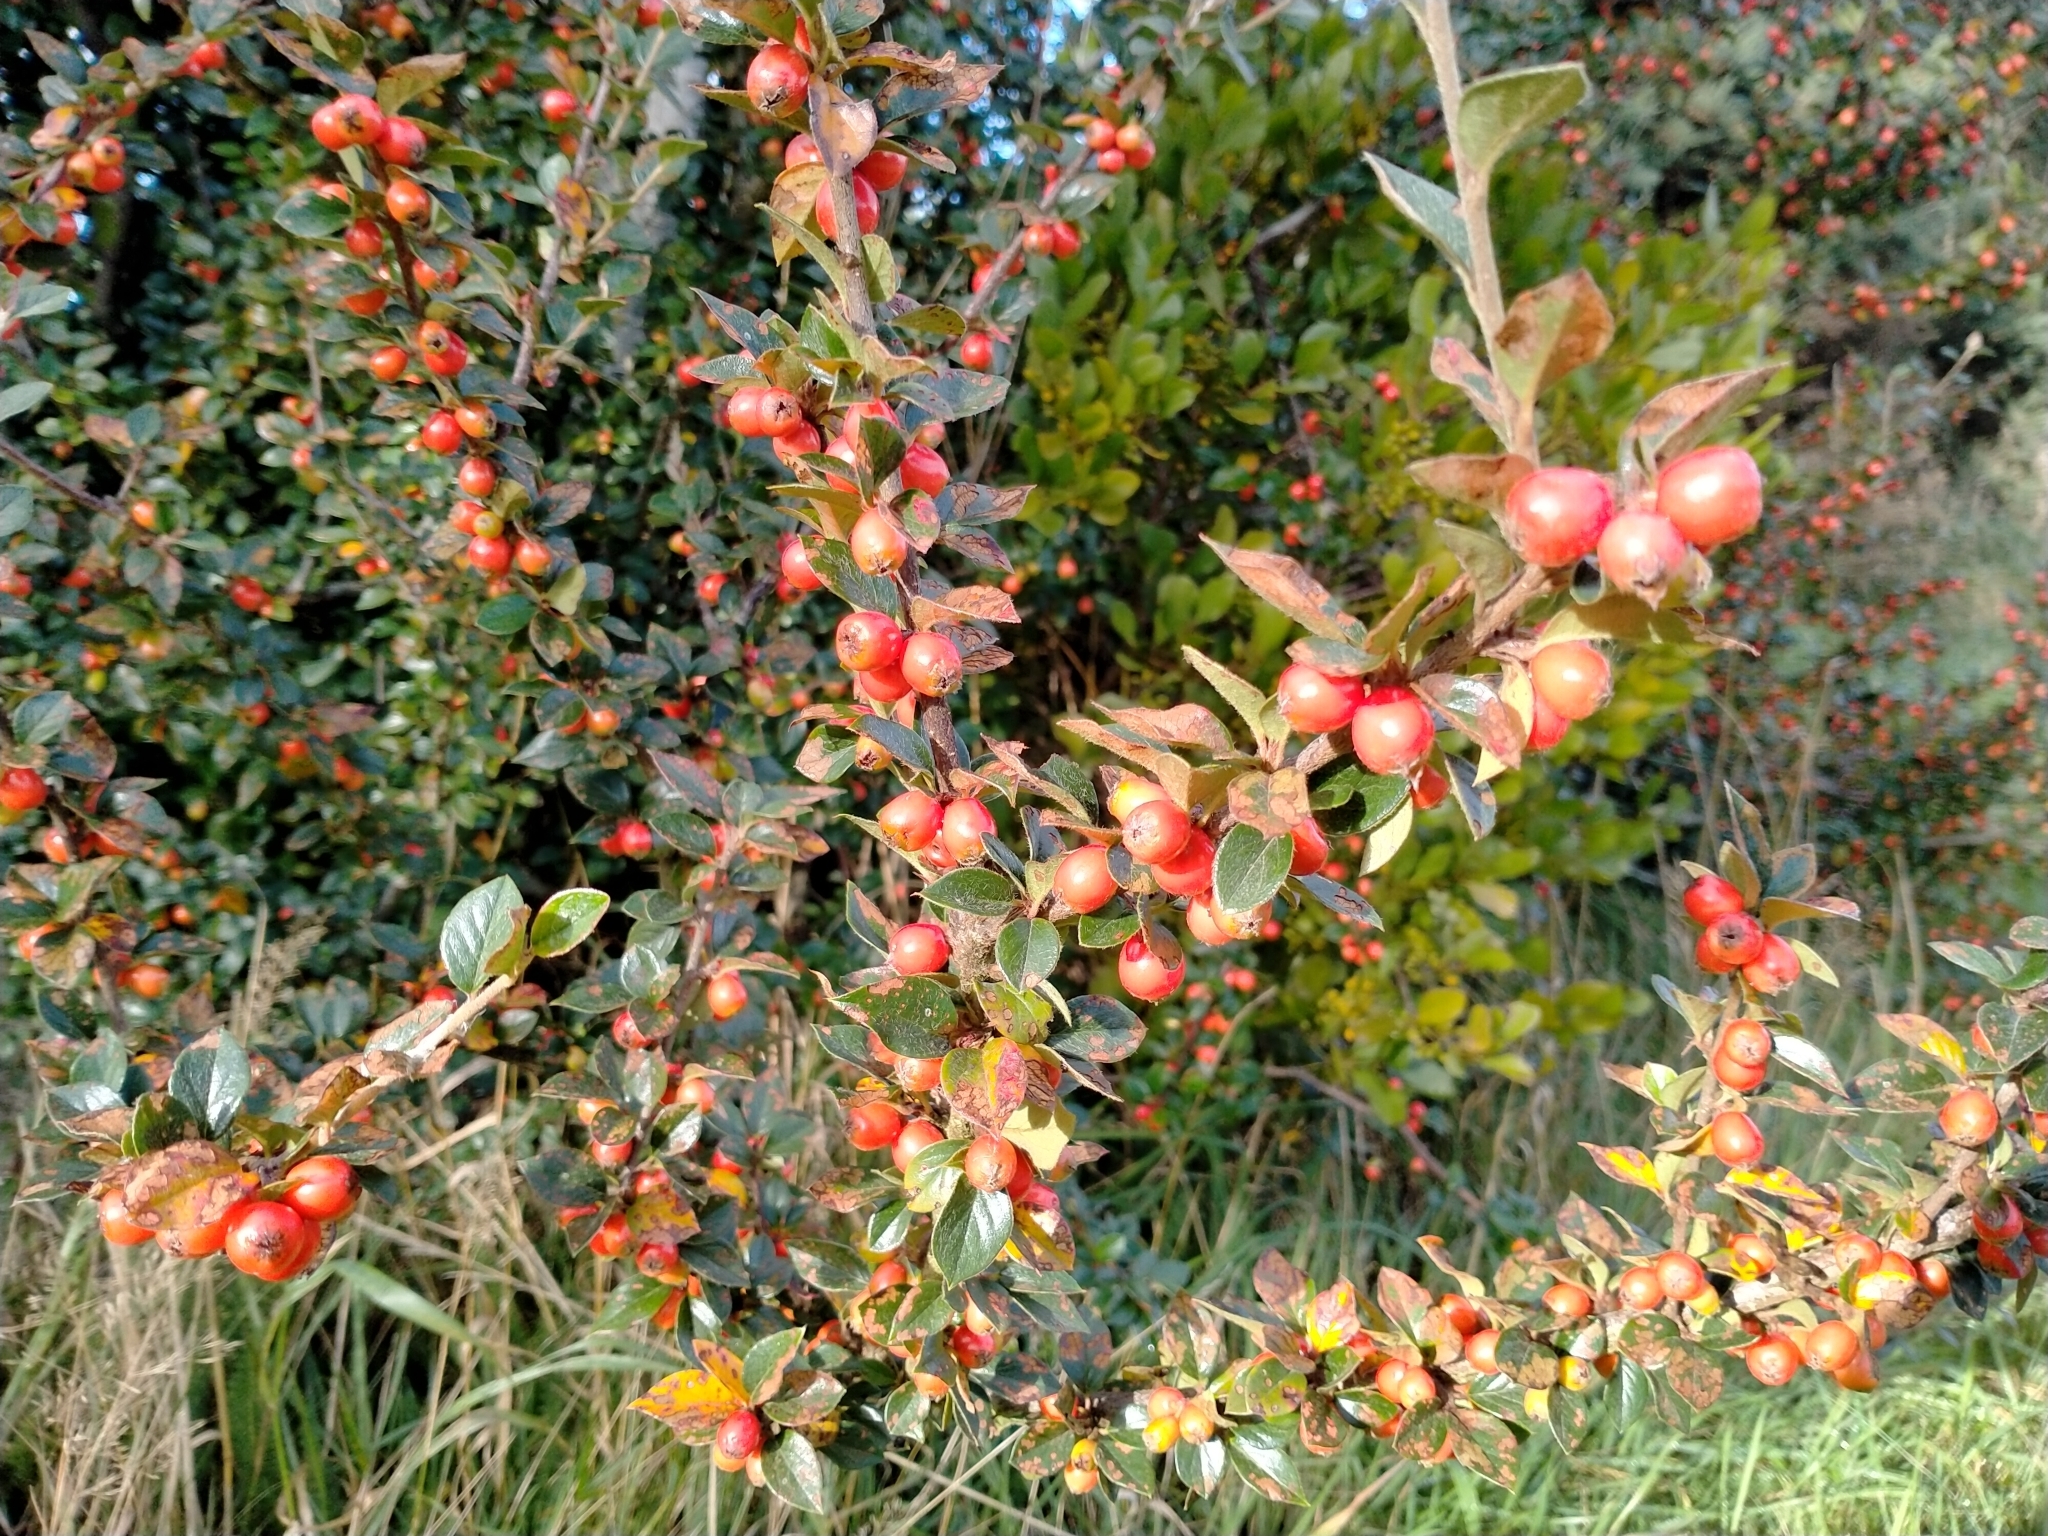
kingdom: Plantae
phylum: Tracheophyta
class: Magnoliopsida
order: Rosales
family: Rosaceae
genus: Cotoneaster
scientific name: Cotoneaster simonsii
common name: Himalayan cotoneaster
